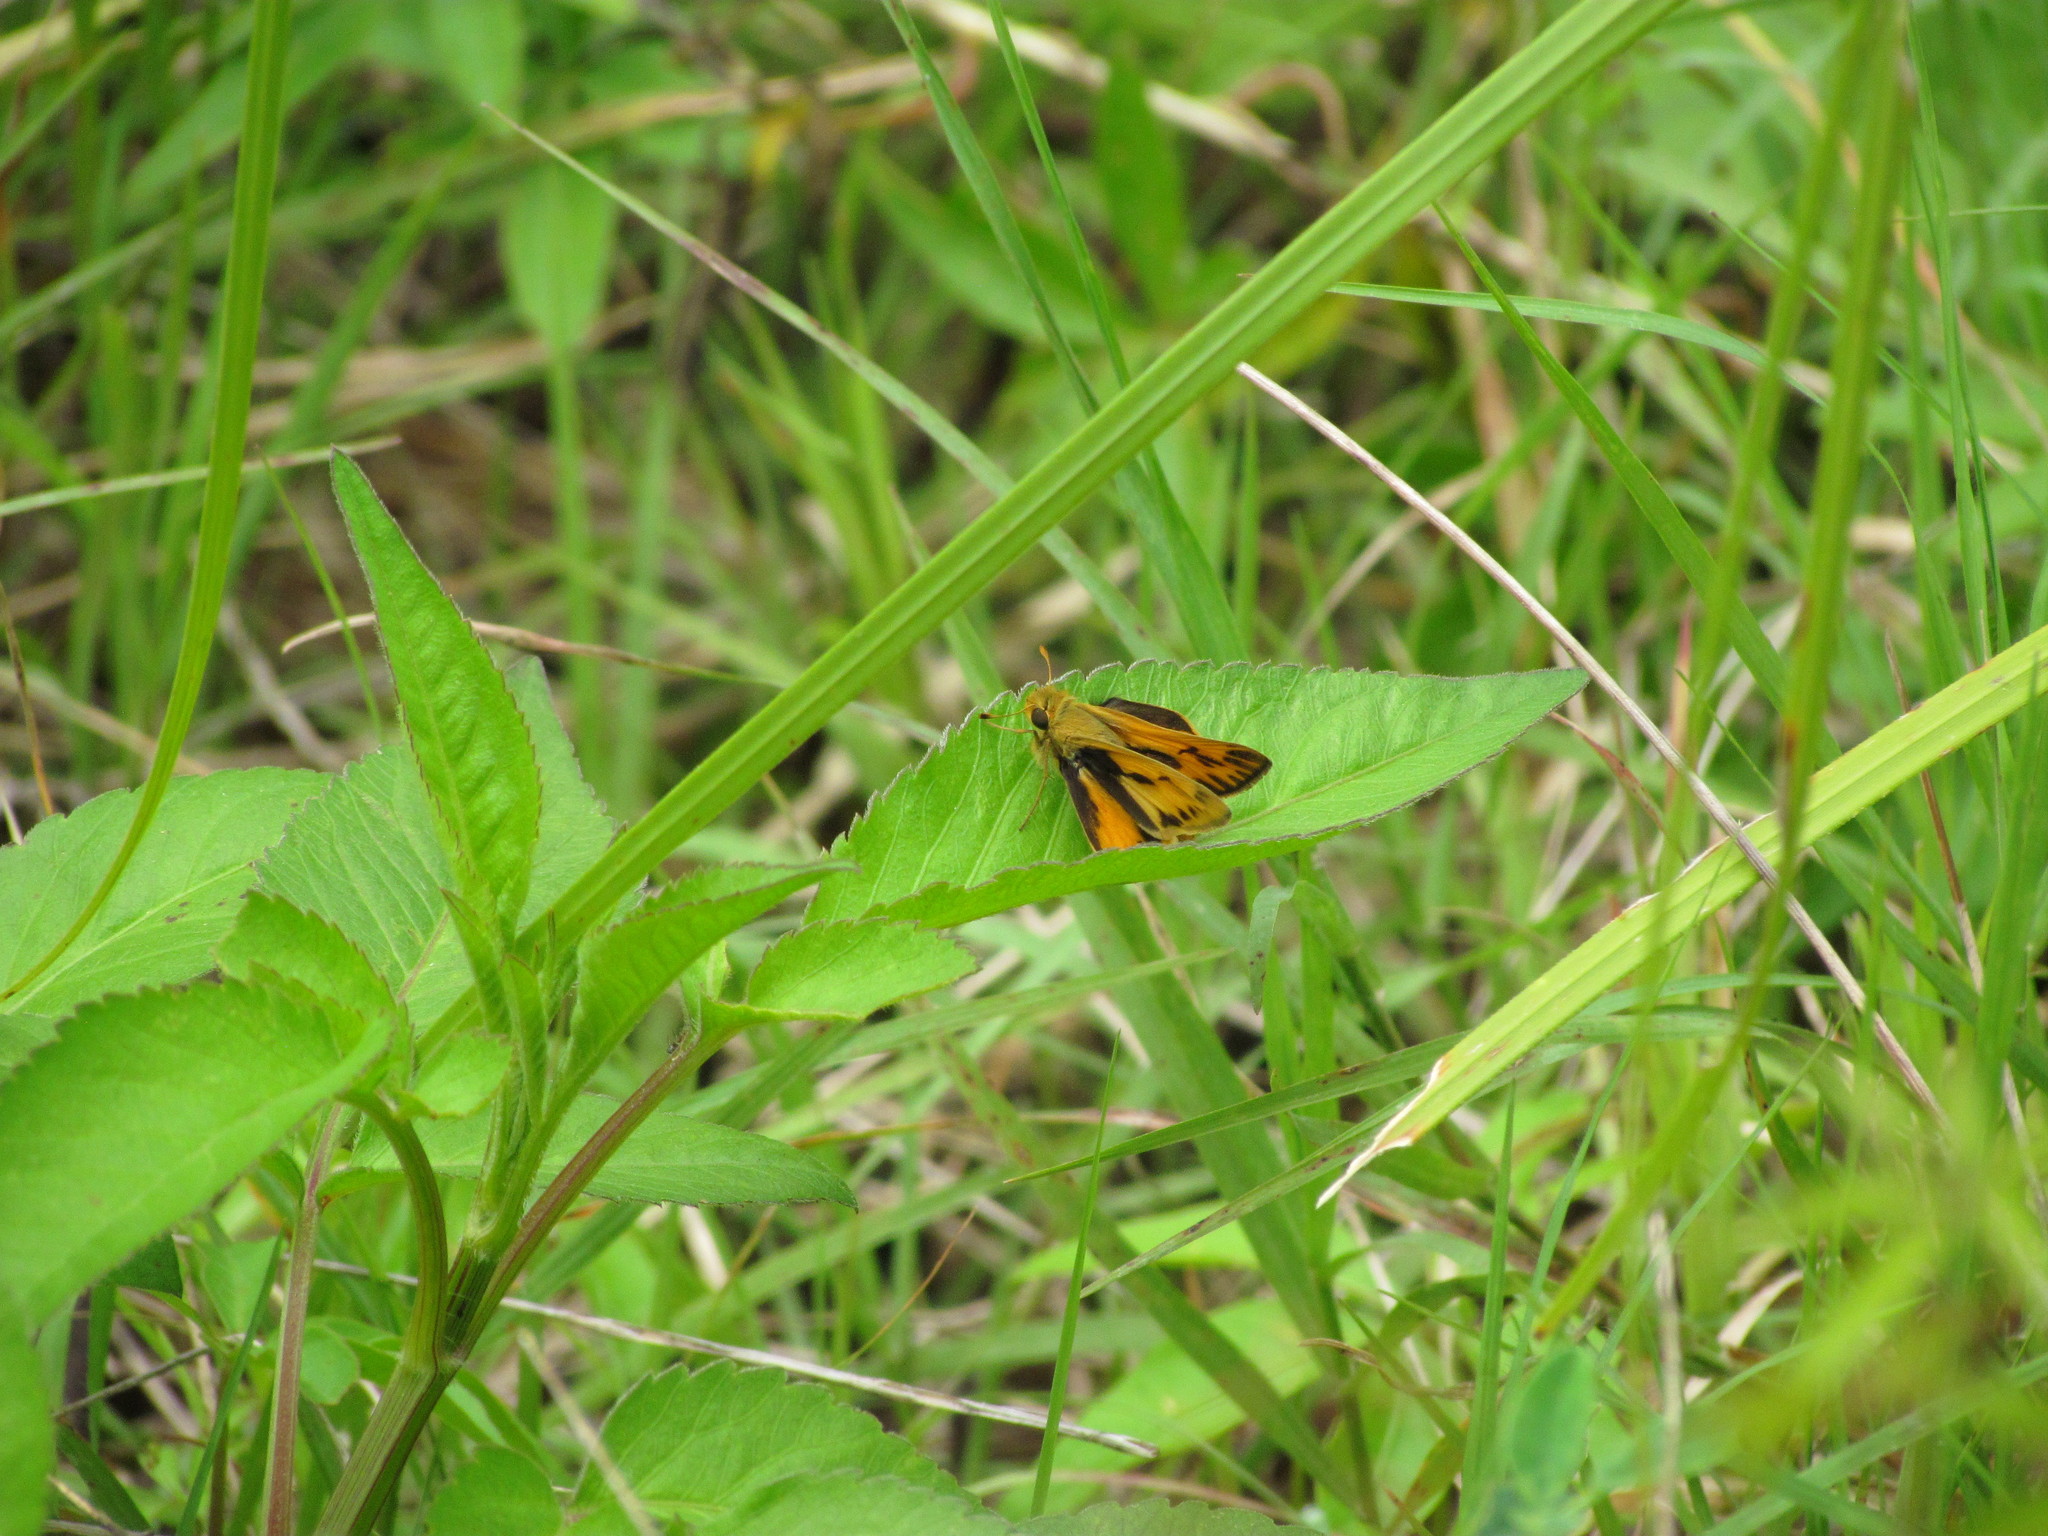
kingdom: Animalia
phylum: Arthropoda
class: Insecta
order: Lepidoptera
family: Hesperiidae
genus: Hylephila
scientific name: Hylephila phyleus
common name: Fiery skipper
